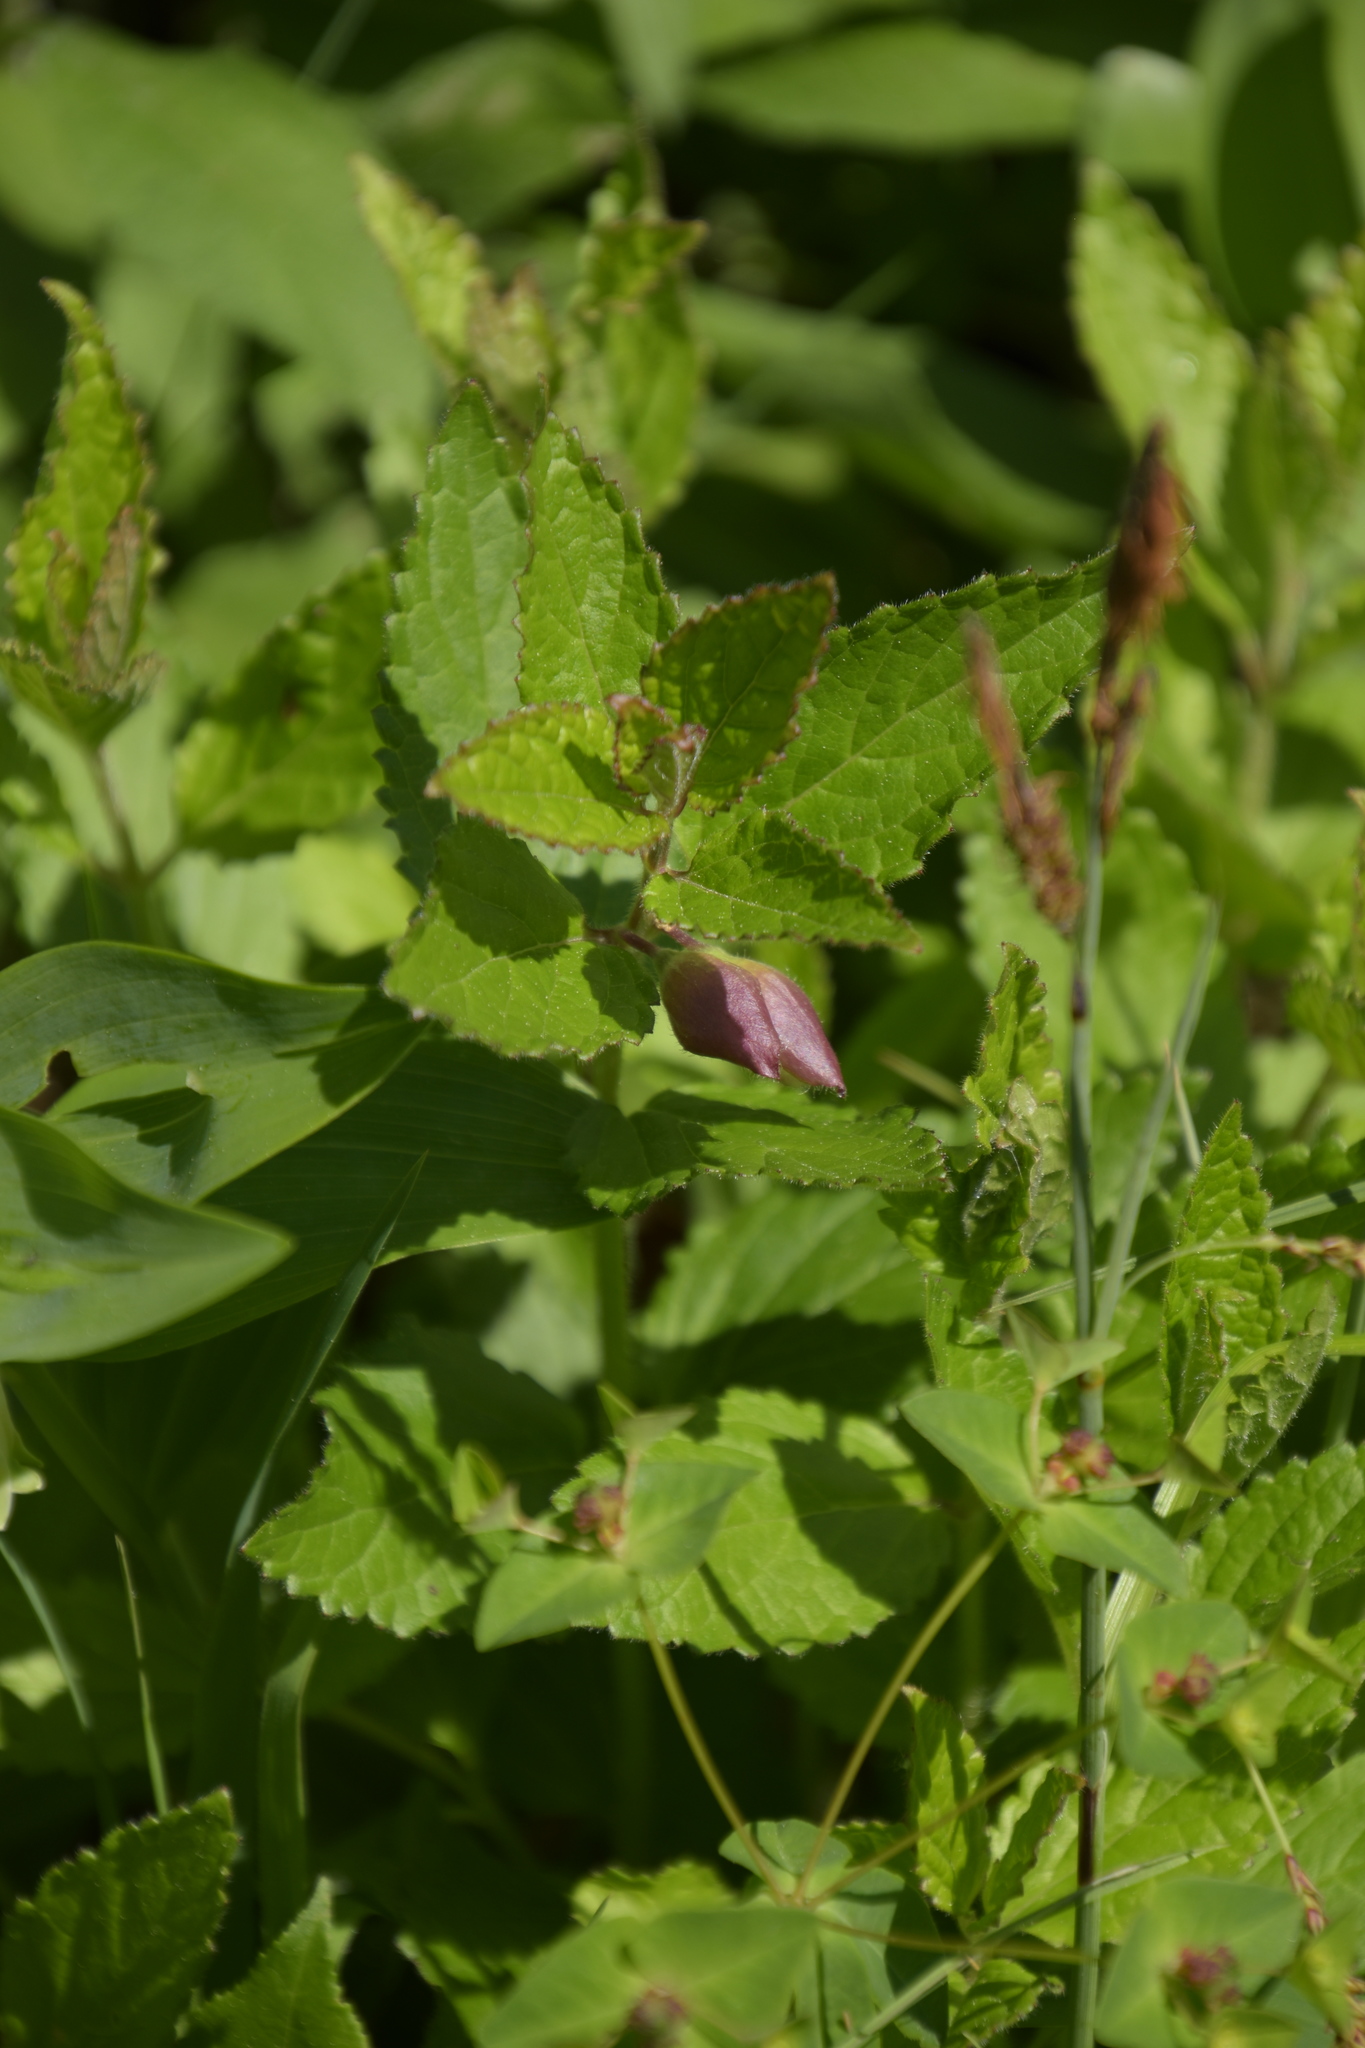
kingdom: Plantae
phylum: Tracheophyta
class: Magnoliopsida
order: Lamiales
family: Lamiaceae
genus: Melittis
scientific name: Melittis melissophyllum
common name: Bastard balm
